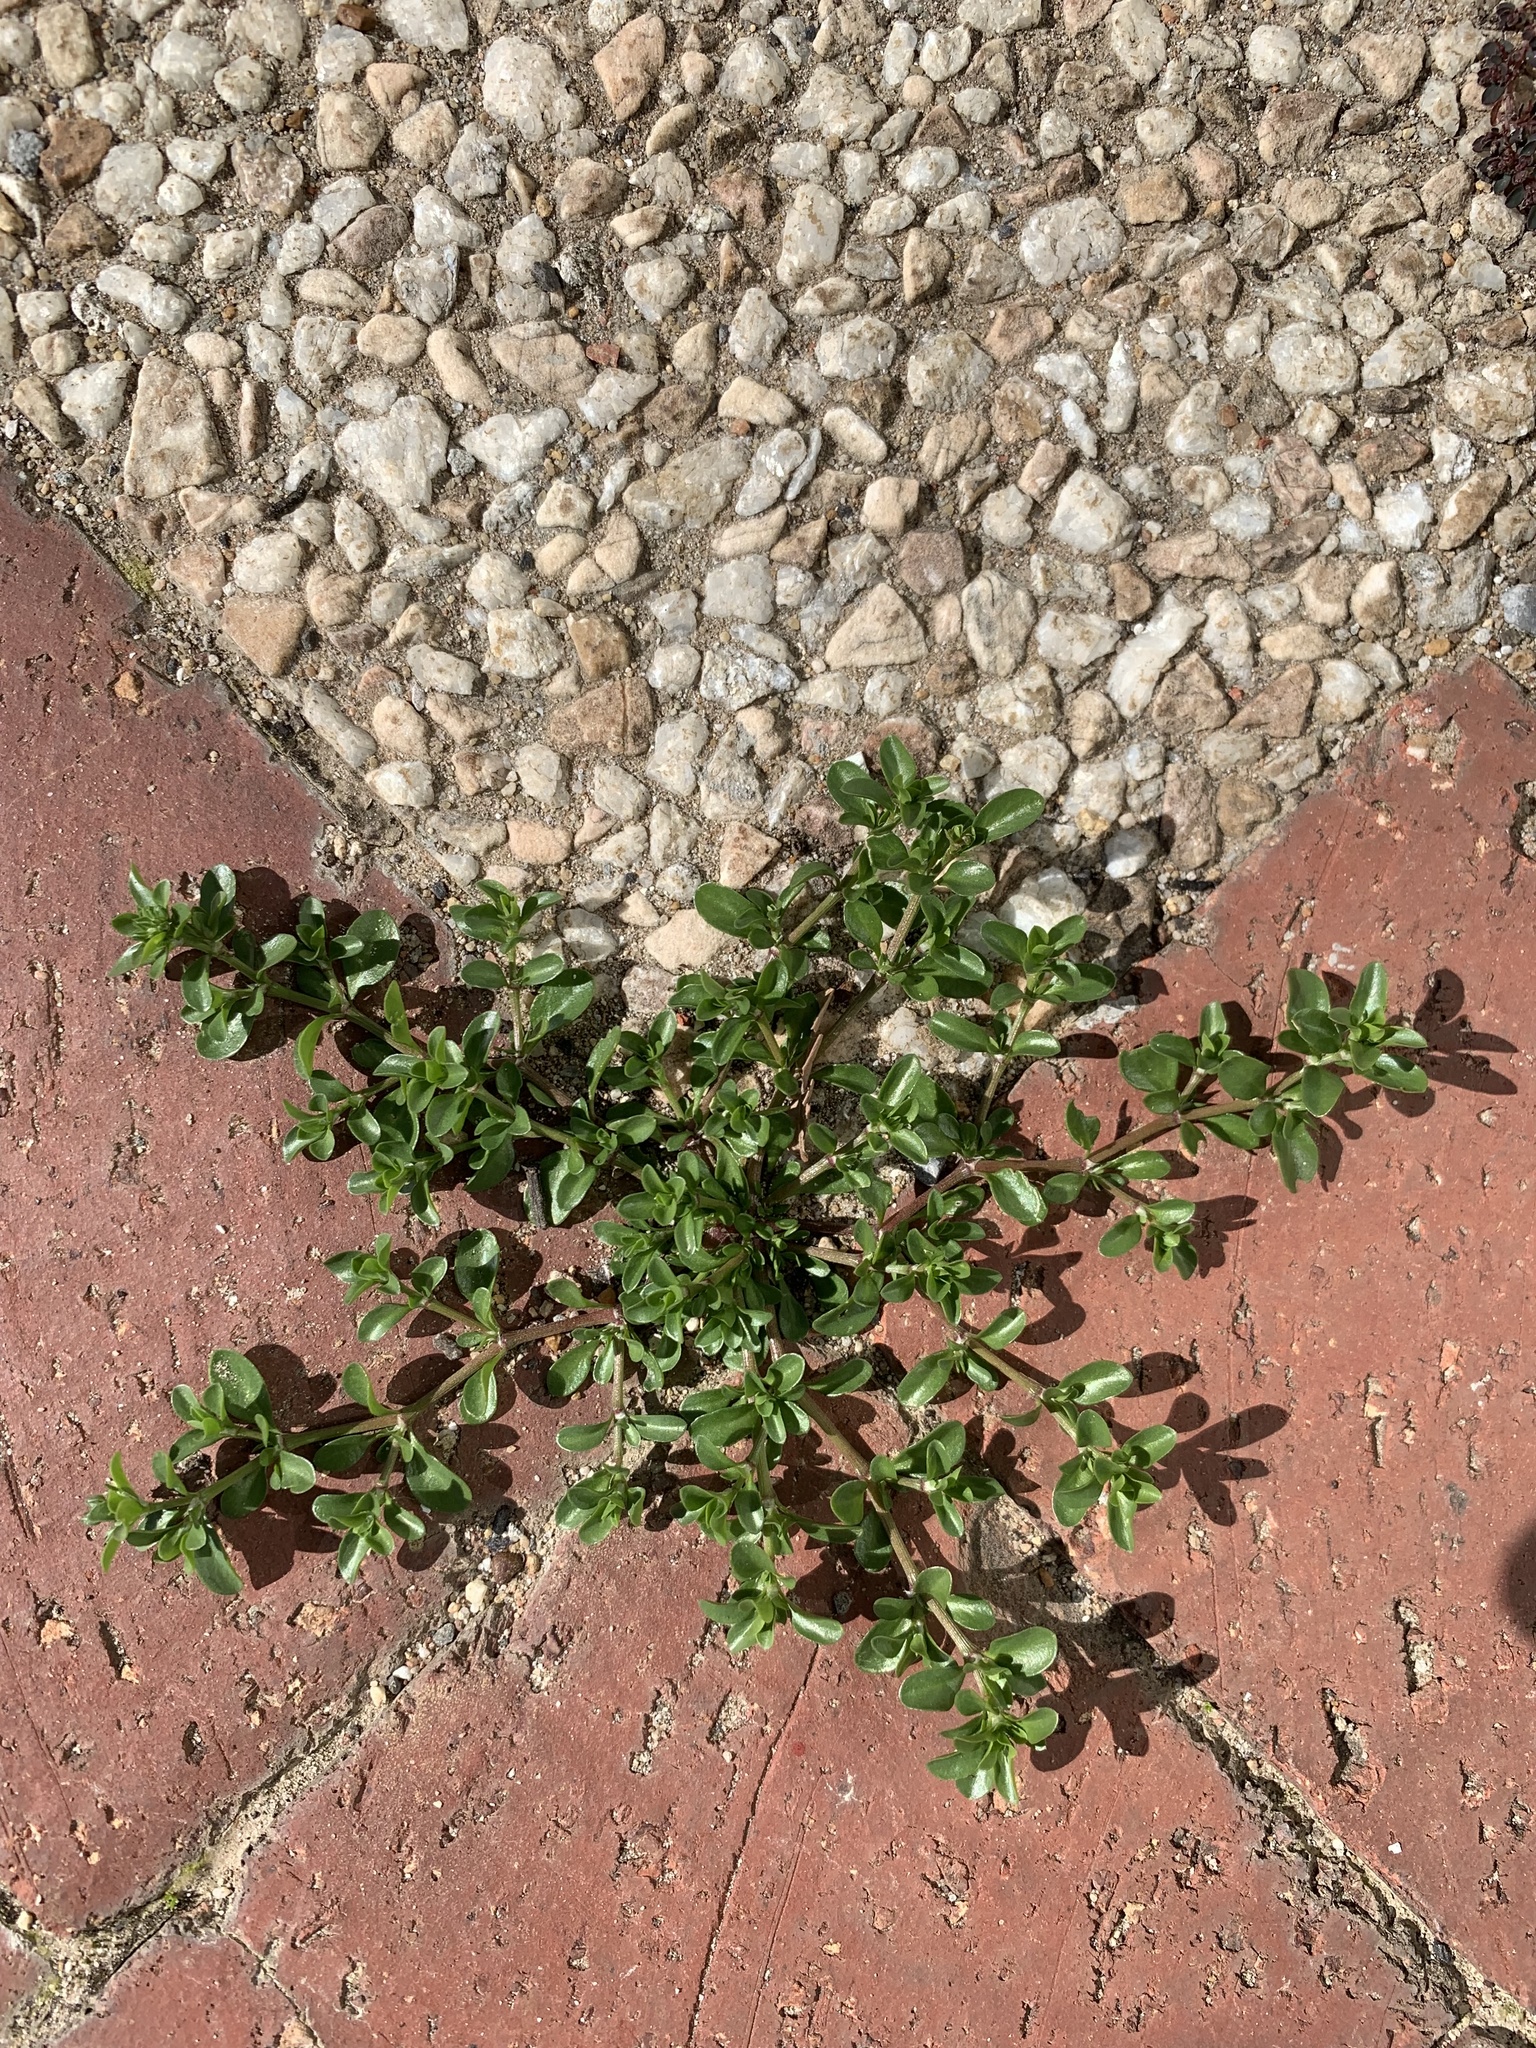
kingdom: Plantae
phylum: Tracheophyta
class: Magnoliopsida
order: Caryophyllales
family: Caryophyllaceae
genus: Polycarpon
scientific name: Polycarpon tetraphyllum
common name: Four-leaved all-seed
